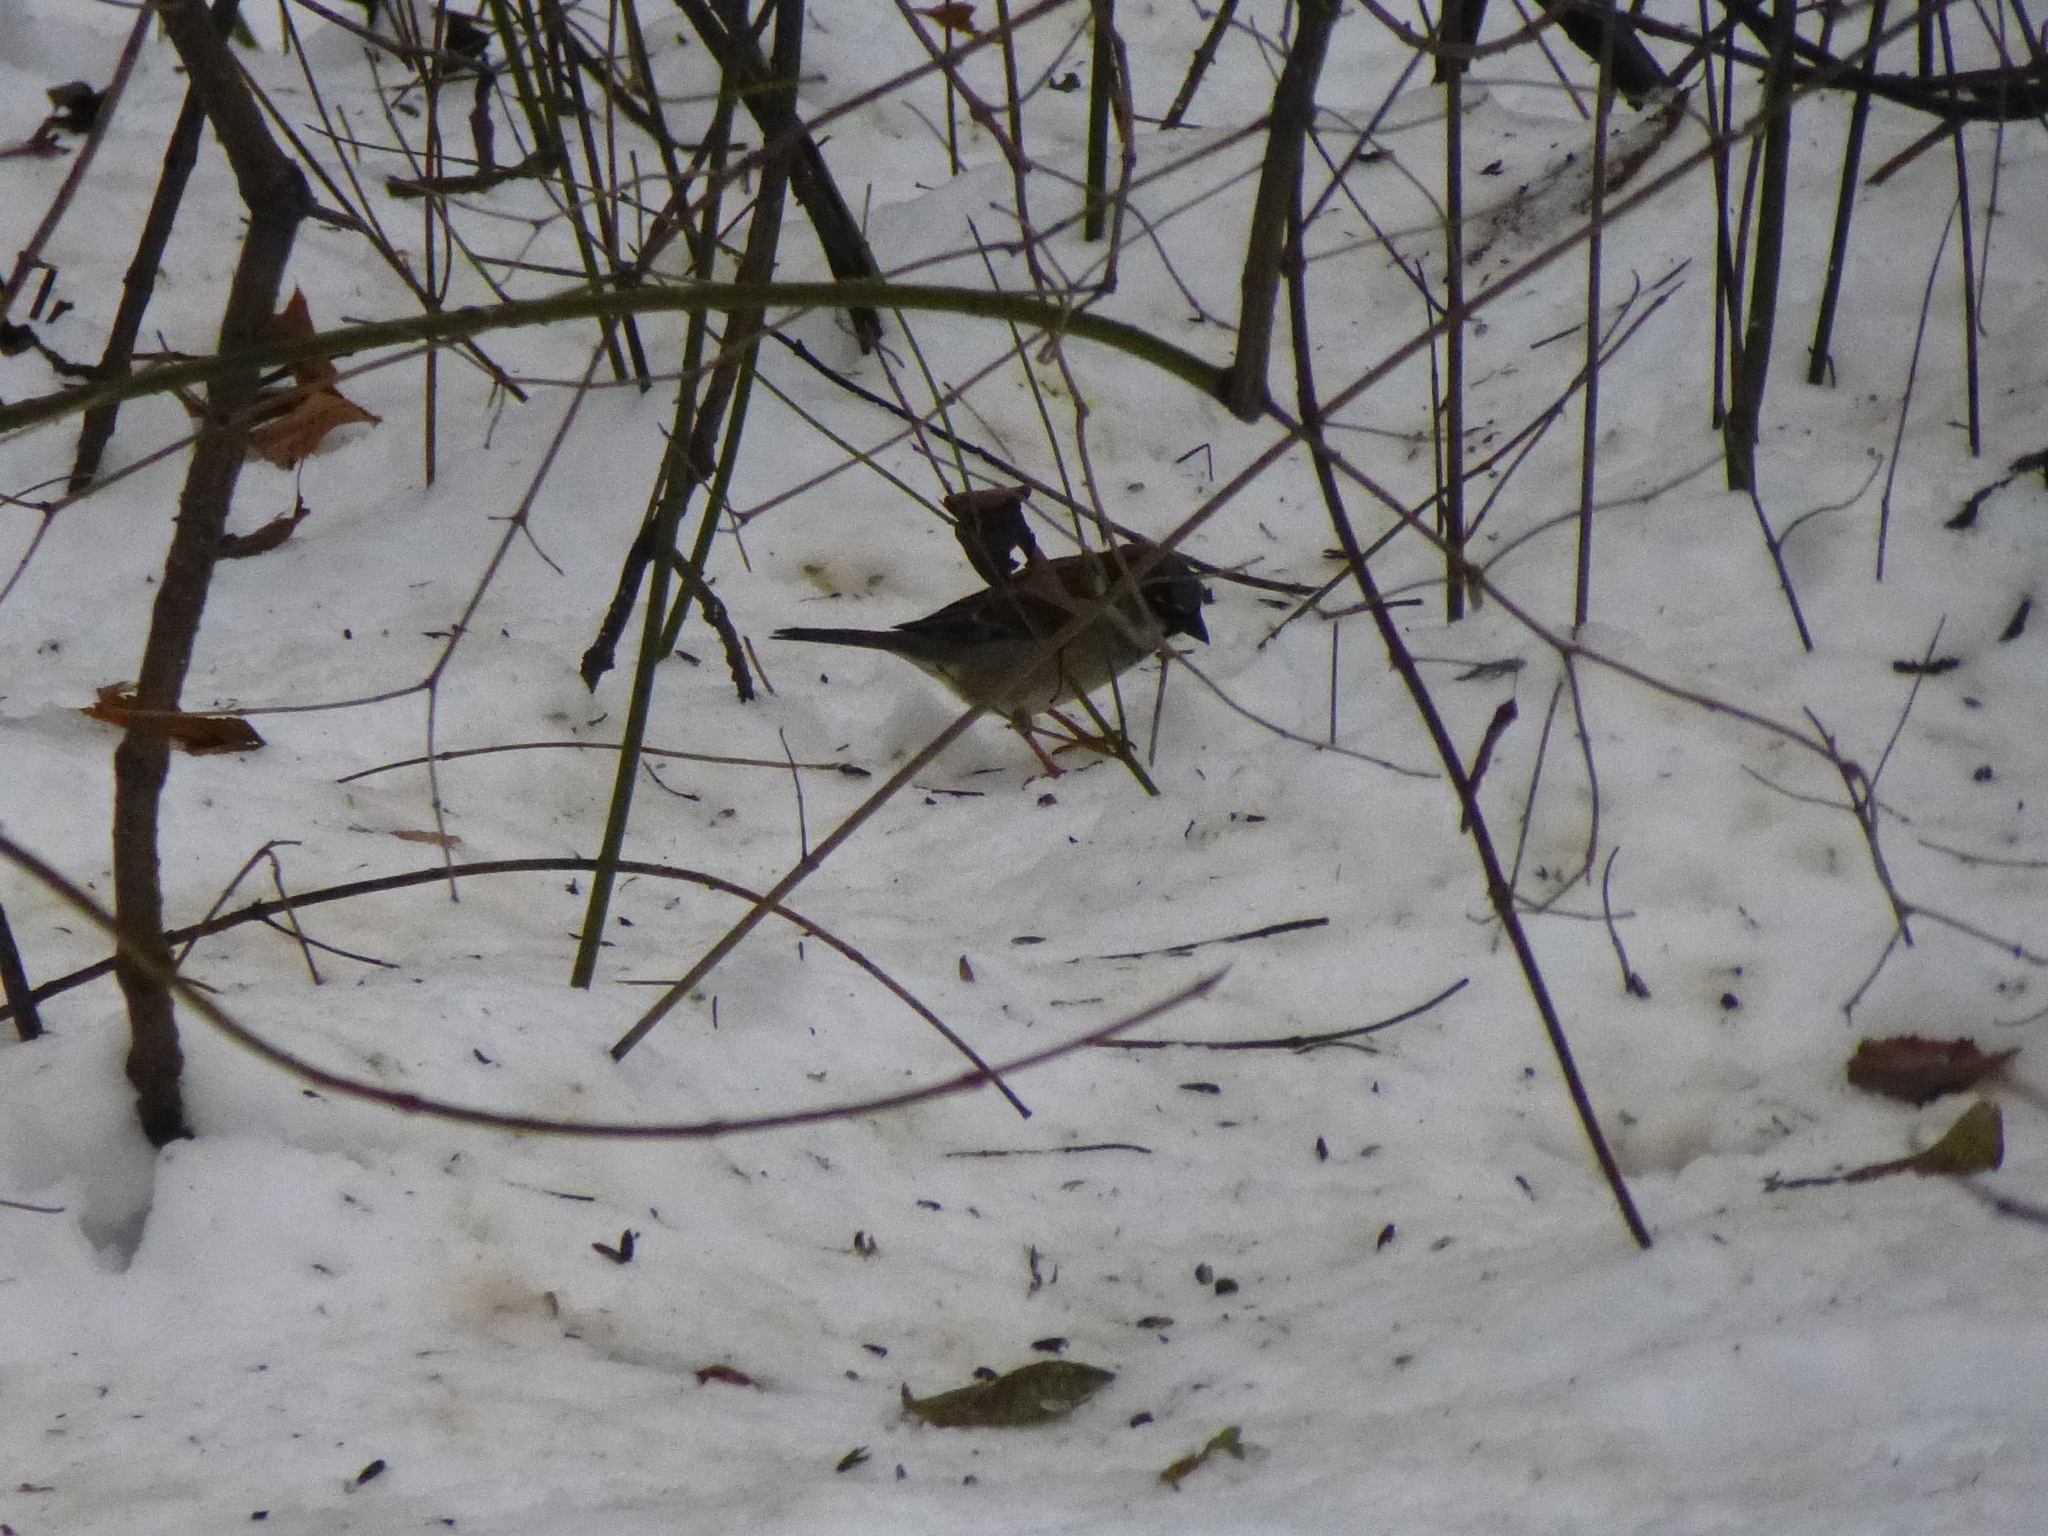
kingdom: Animalia
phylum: Chordata
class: Aves
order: Passeriformes
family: Passeridae
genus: Passer
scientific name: Passer domesticus
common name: House sparrow
